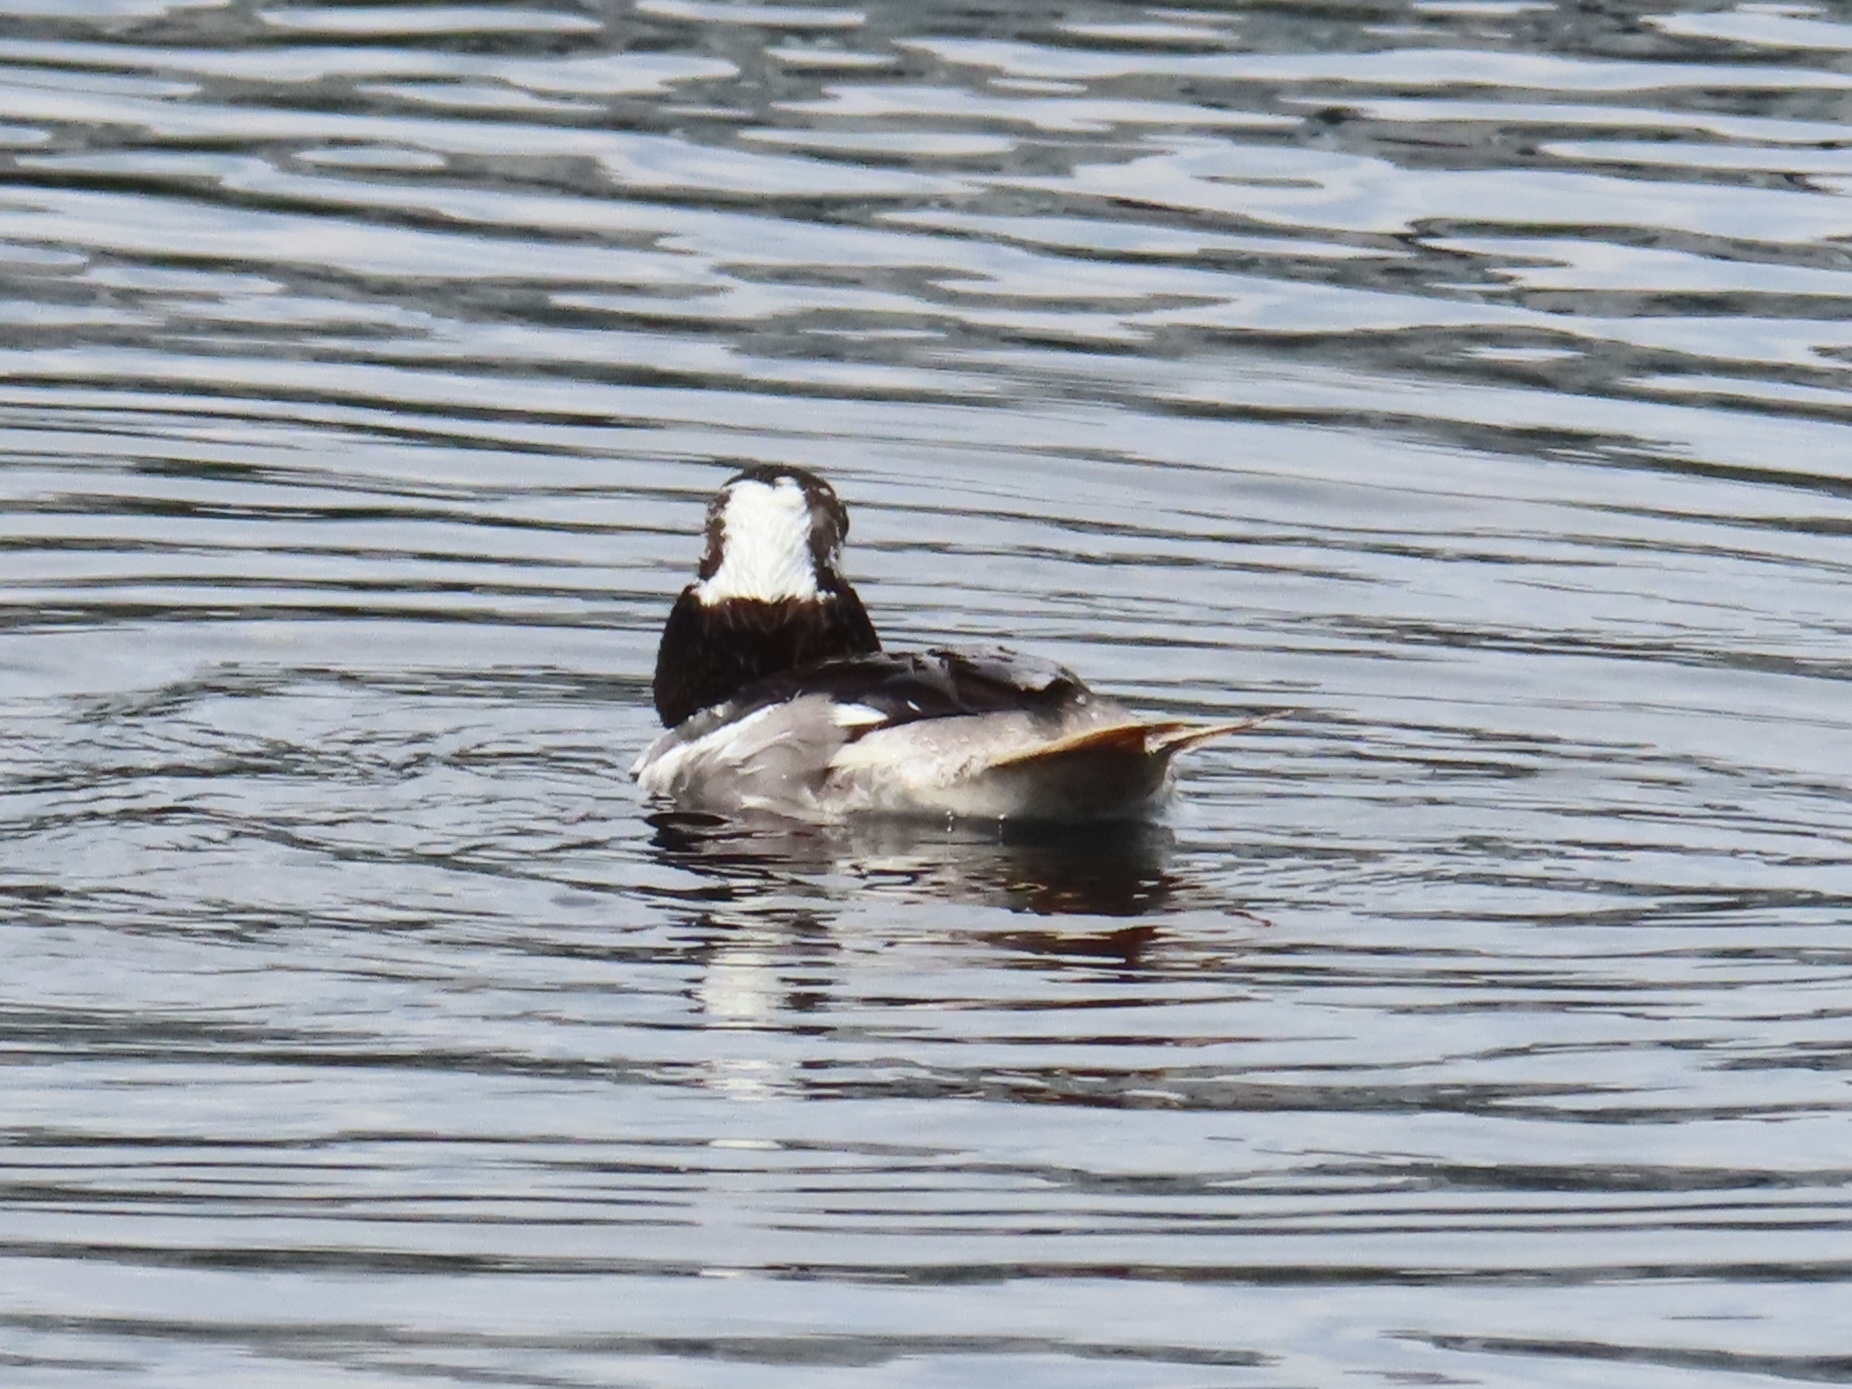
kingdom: Animalia
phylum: Chordata
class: Aves
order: Anseriformes
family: Anatidae
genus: Bucephala
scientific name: Bucephala albeola
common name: Bufflehead
